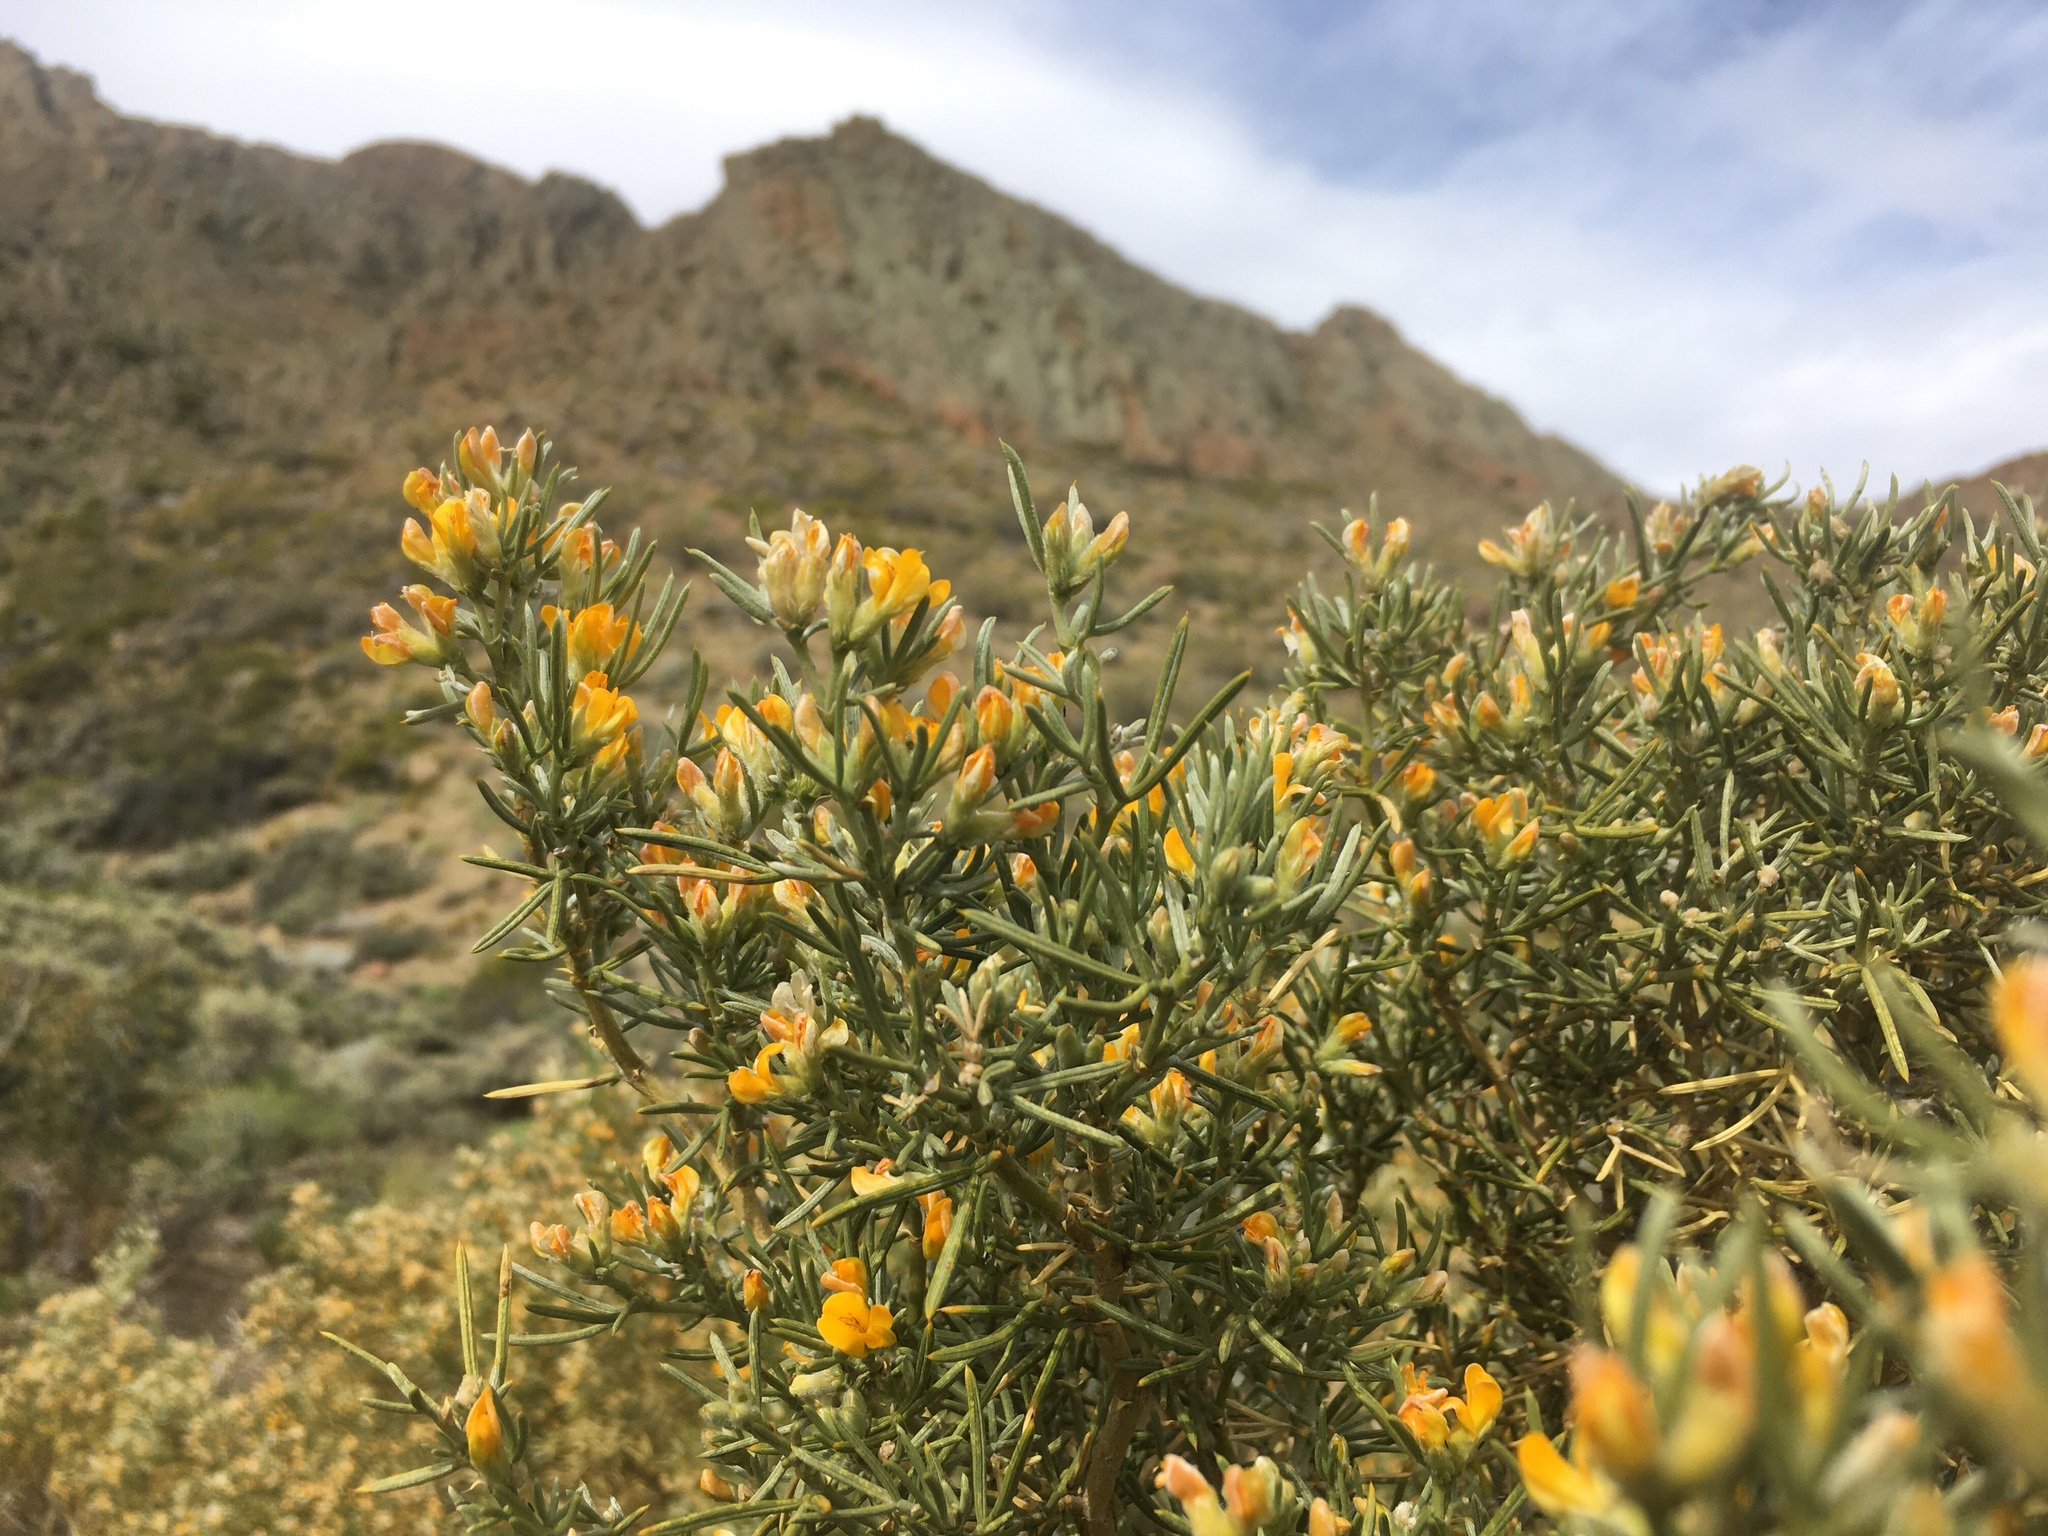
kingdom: Plantae
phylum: Tracheophyta
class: Magnoliopsida
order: Fabales
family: Fabaceae
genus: Anarthrophyllum
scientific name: Anarthrophyllum rigidum
